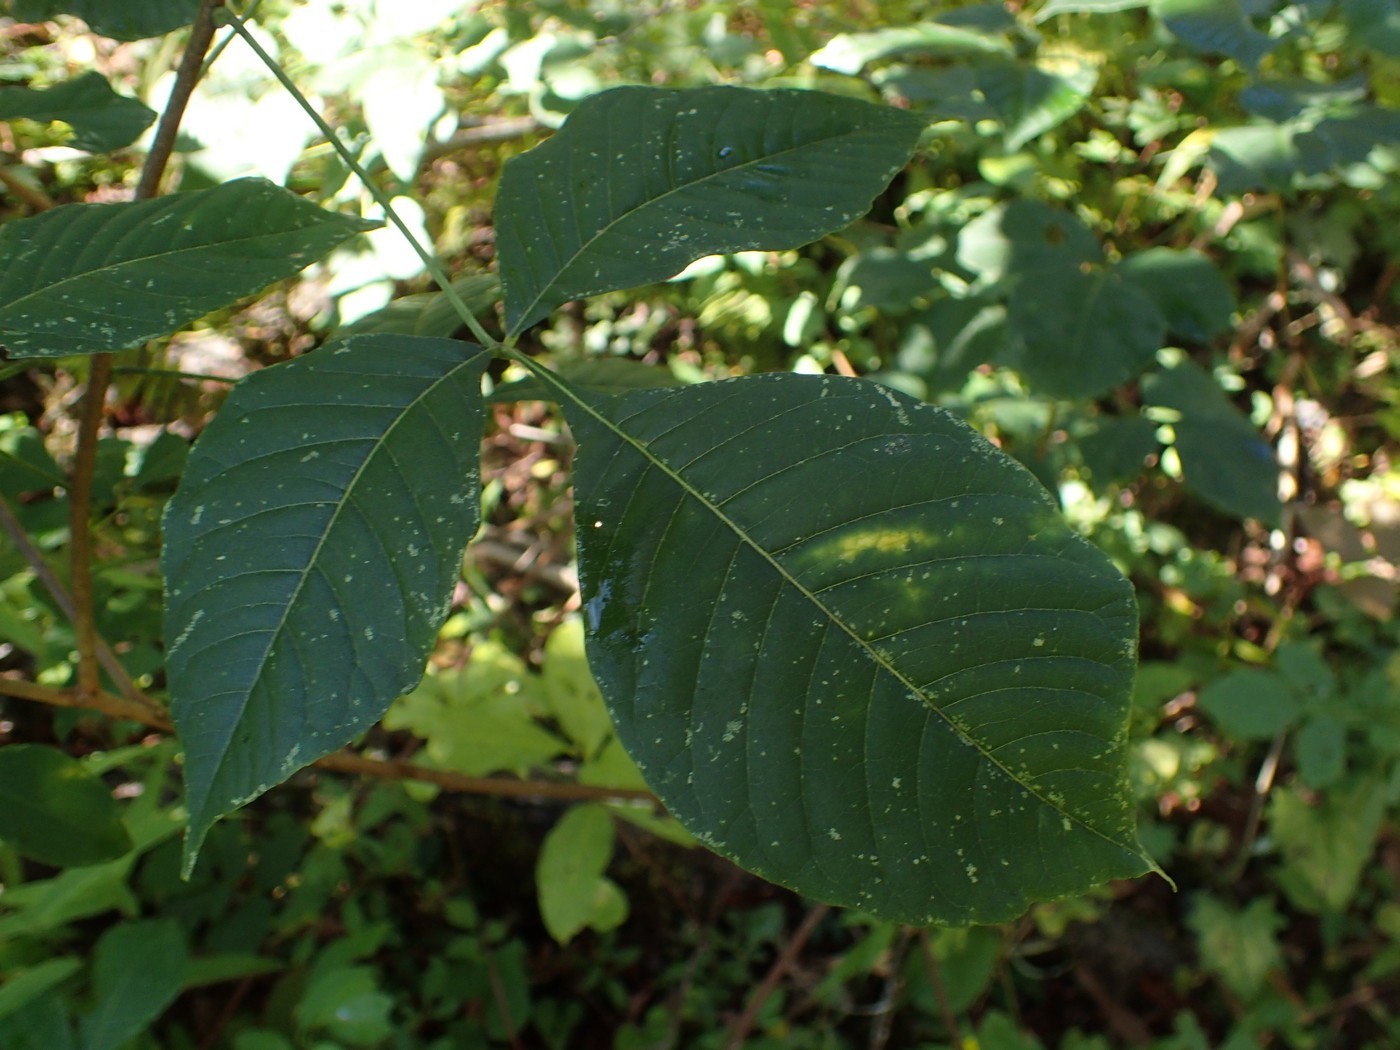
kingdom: Plantae
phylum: Tracheophyta
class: Magnoliopsida
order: Sapindales
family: Rutaceae
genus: Ptelea
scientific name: Ptelea trifoliata
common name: Common hop-tree
